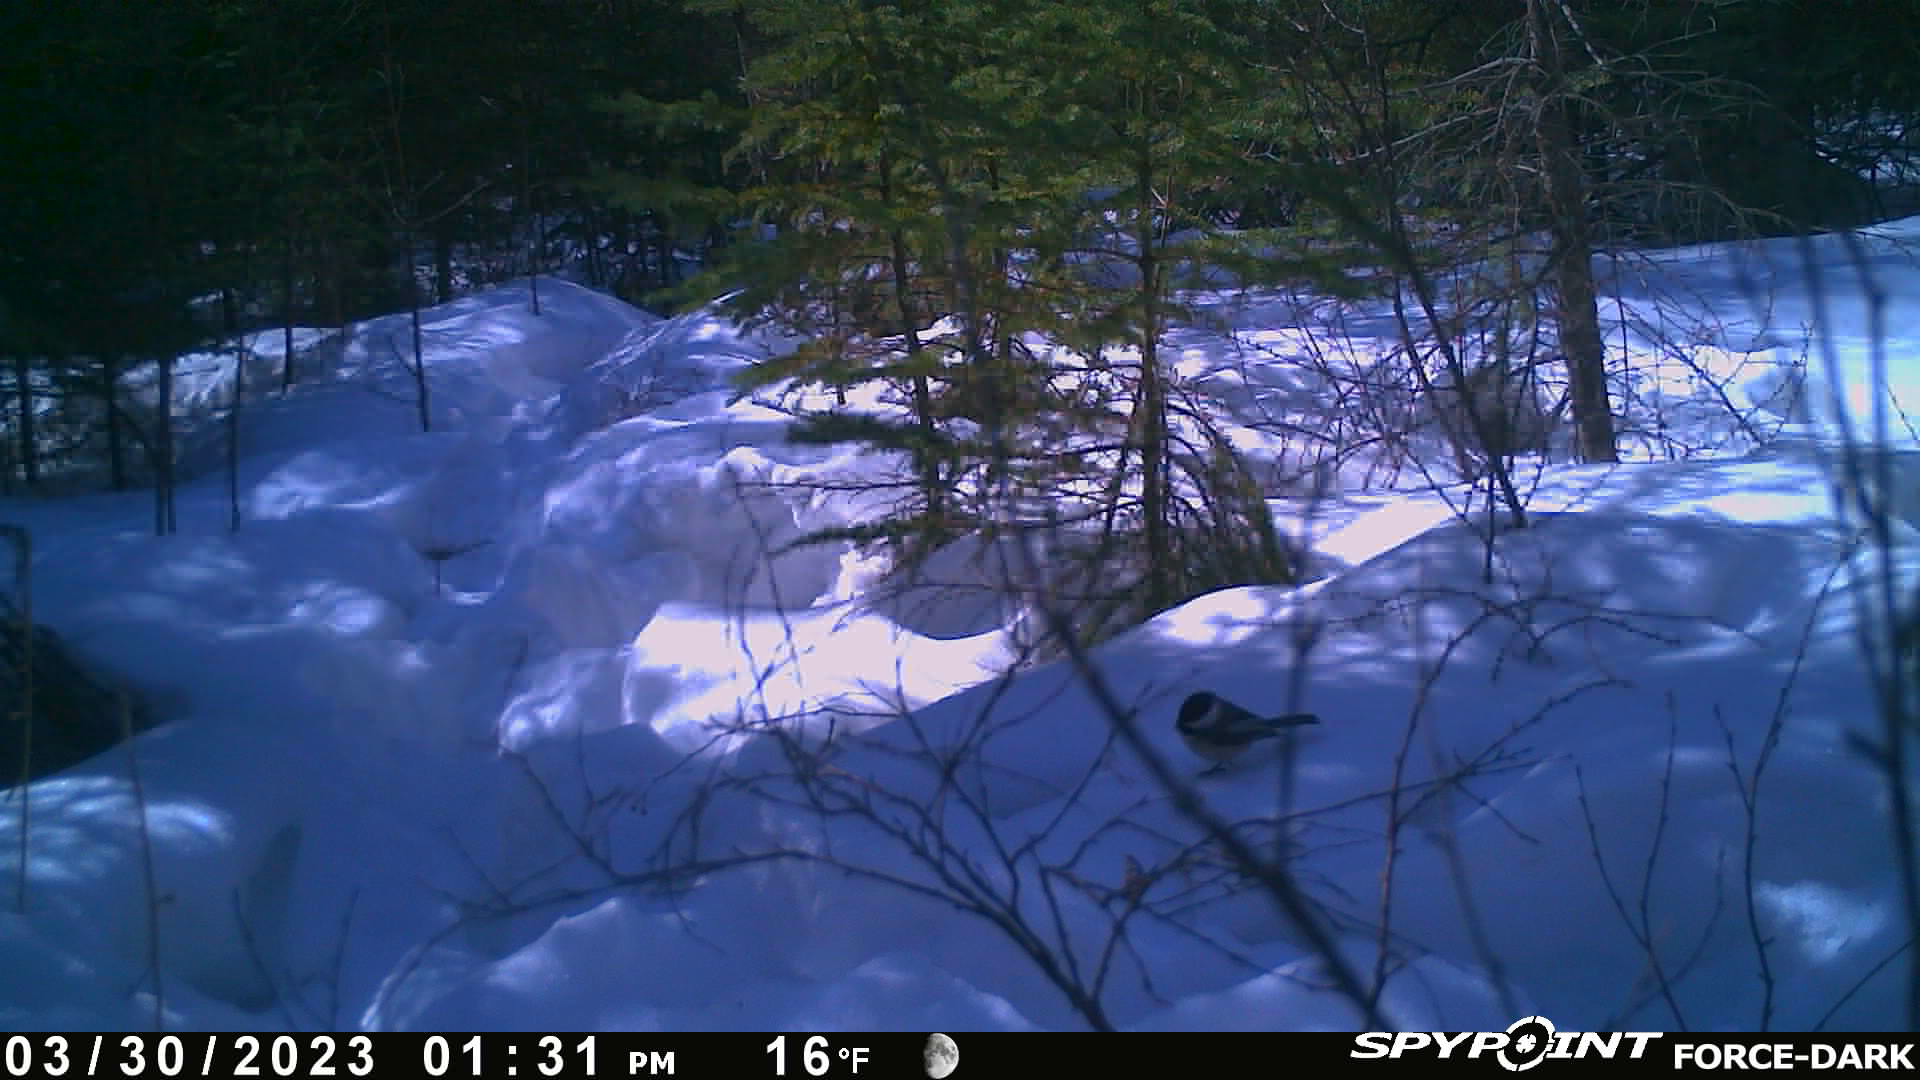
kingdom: Animalia
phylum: Chordata
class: Aves
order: Passeriformes
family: Paridae
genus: Poecile
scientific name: Poecile atricapillus
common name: Black-capped chickadee
